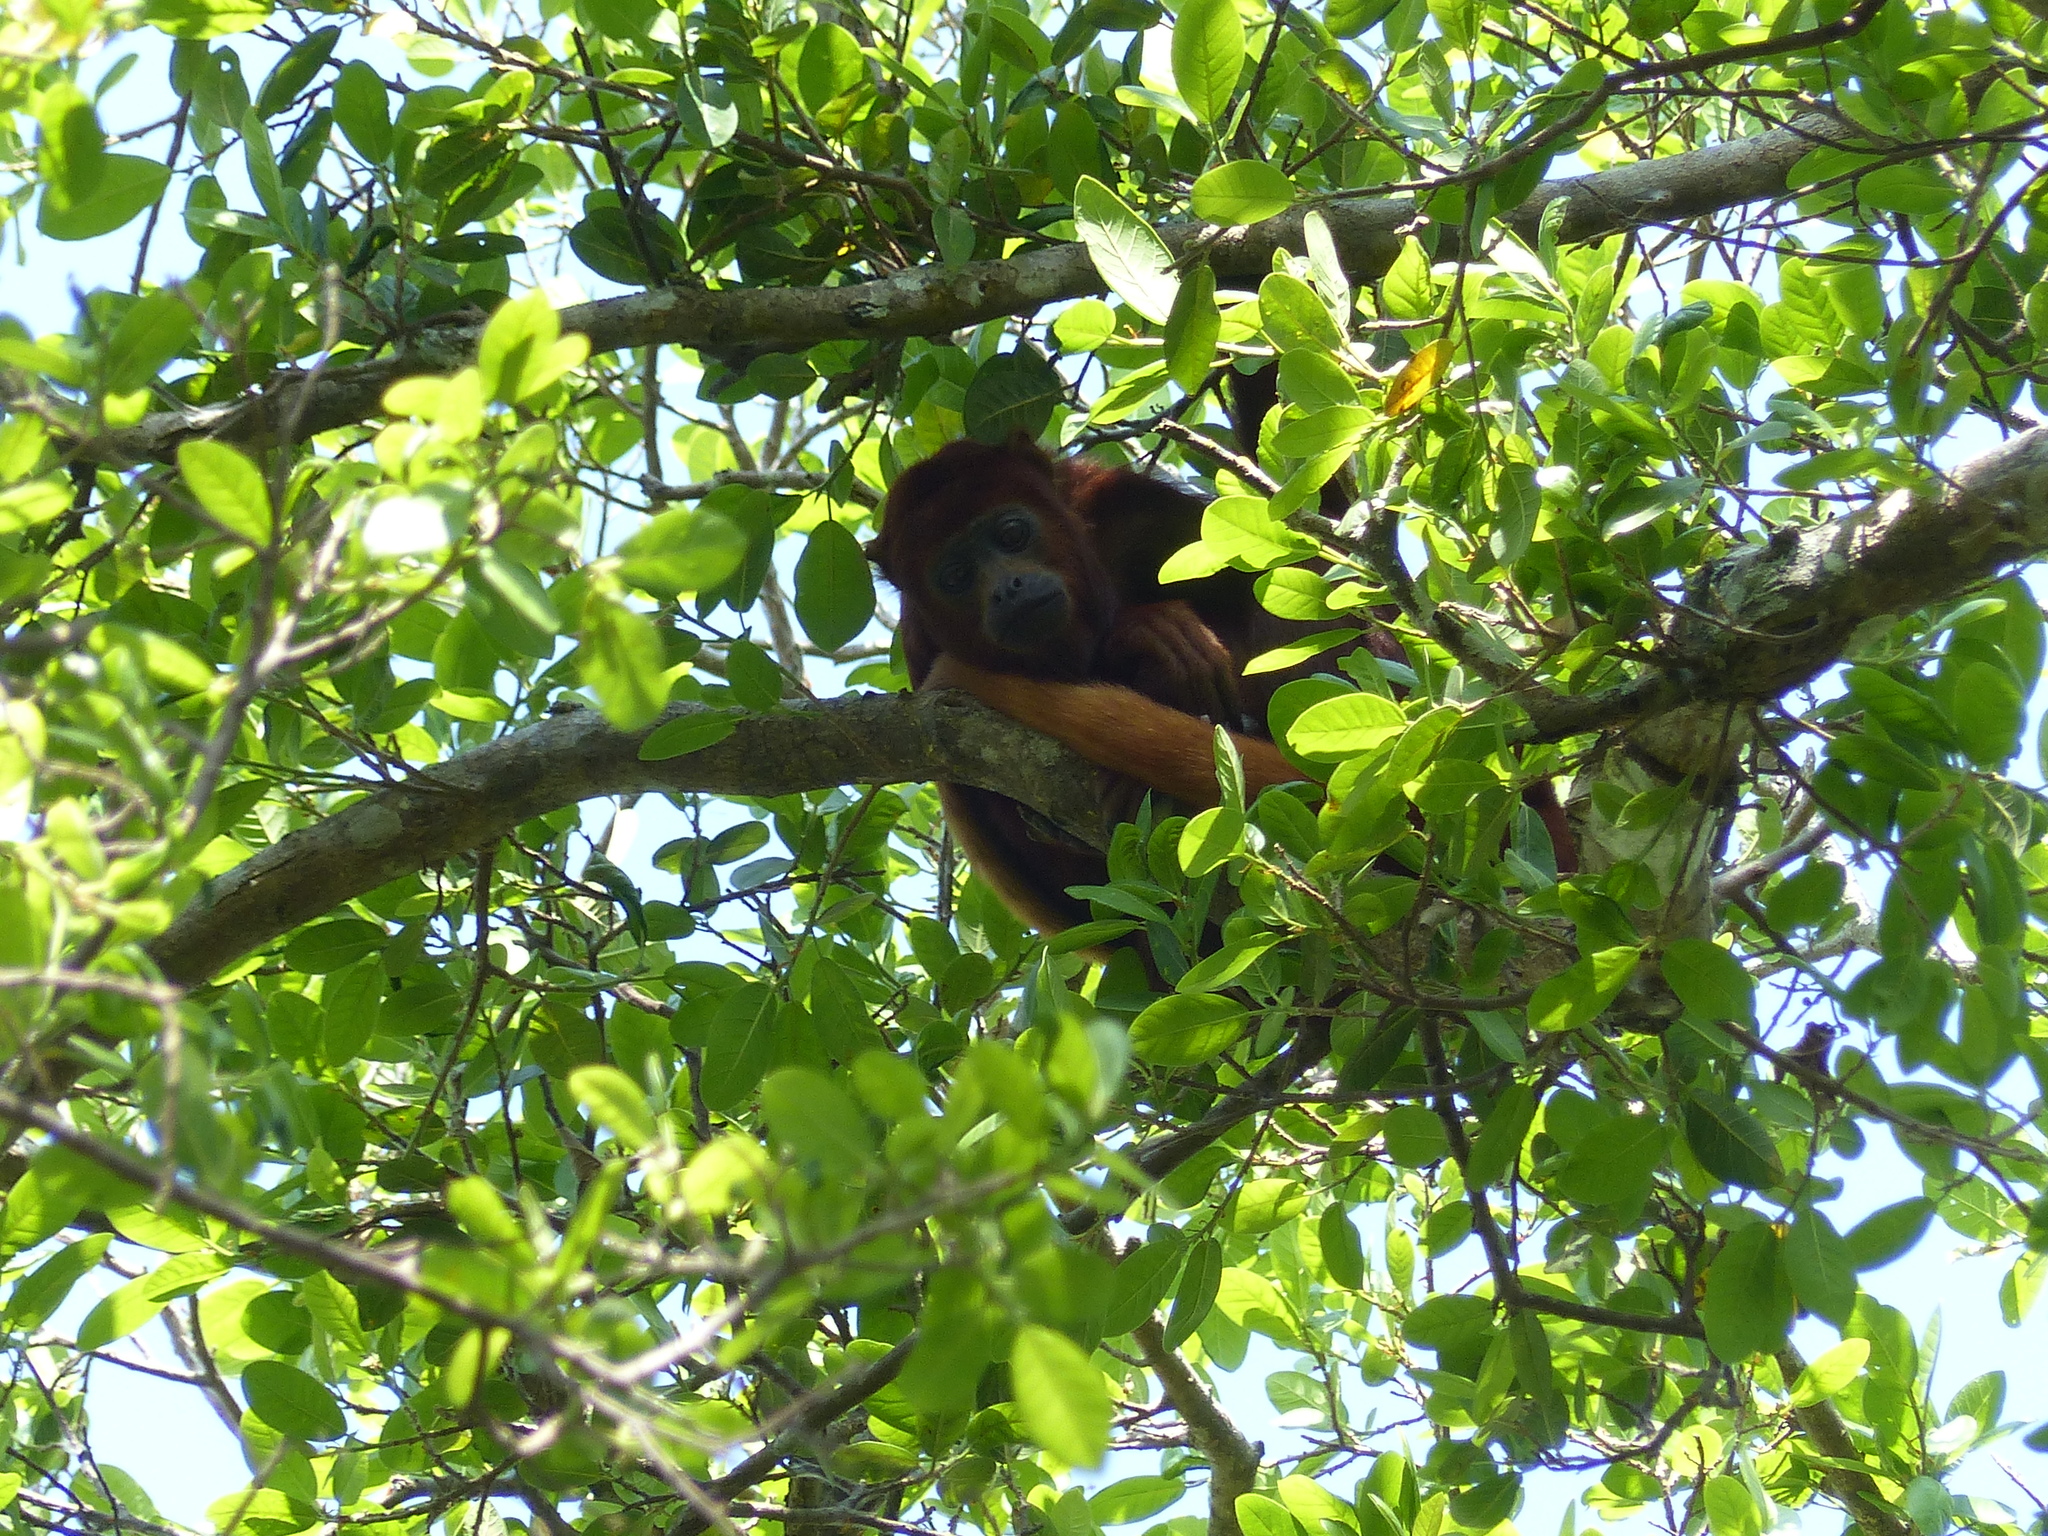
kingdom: Animalia
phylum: Chordata
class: Mammalia
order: Primates
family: Atelidae
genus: Alouatta
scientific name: Alouatta seniculus
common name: Venezuelan red howler
